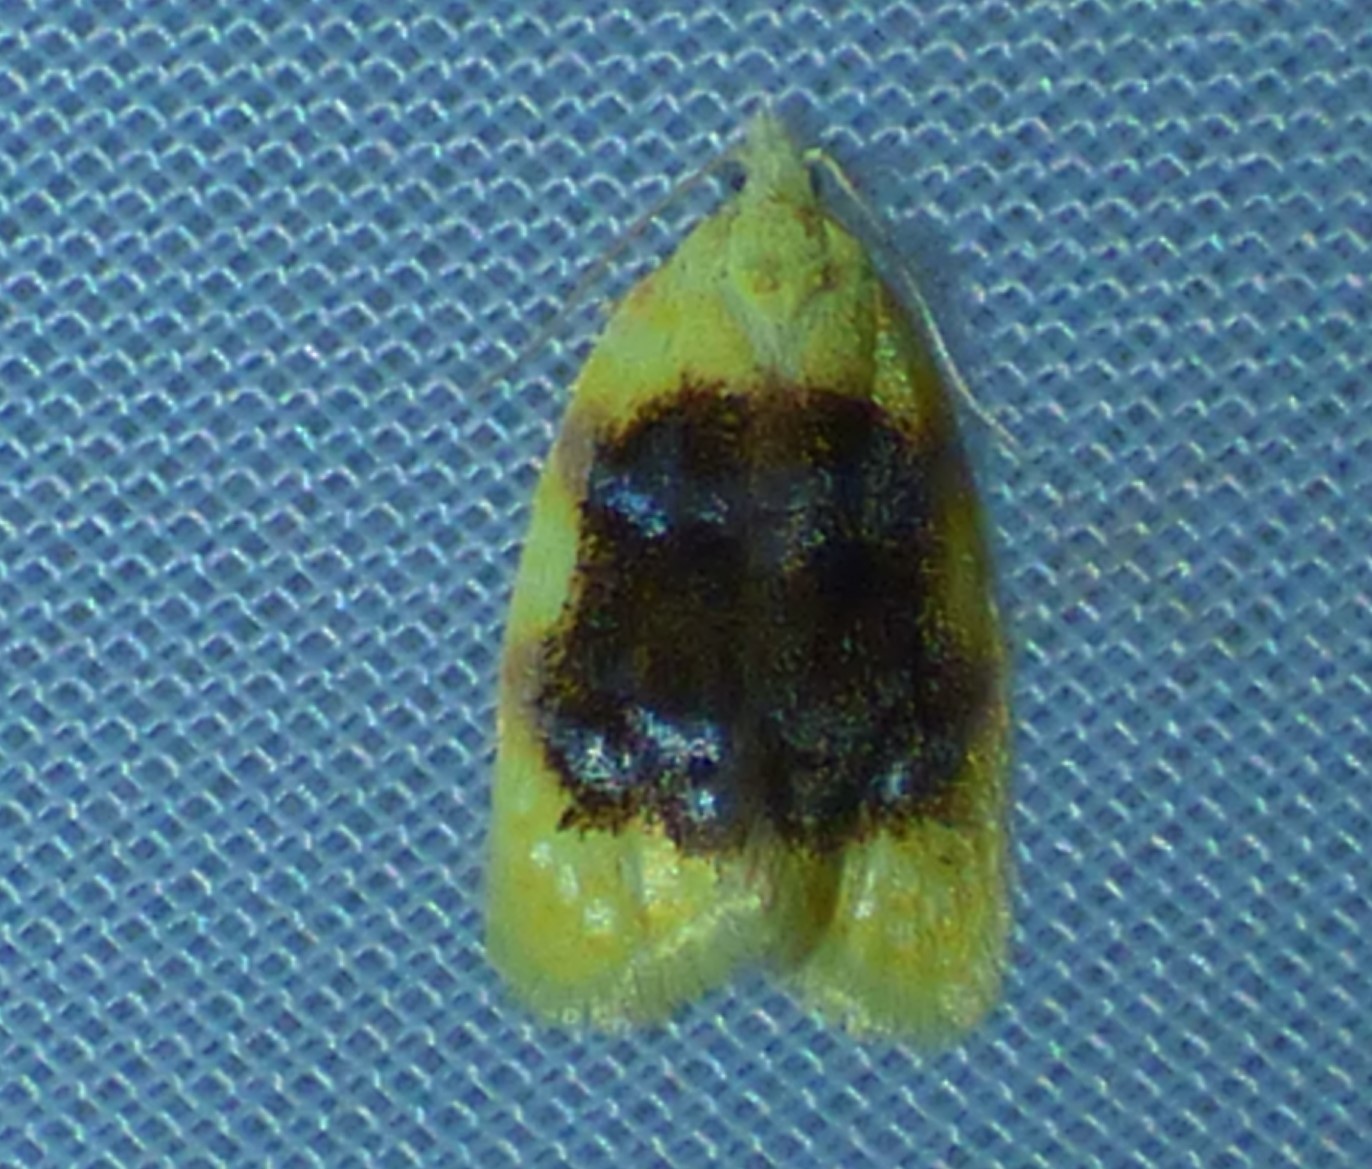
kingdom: Animalia
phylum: Arthropoda
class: Insecta
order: Lepidoptera
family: Tortricidae
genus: Acleris
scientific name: Acleris semipurpurana
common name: Oak leaftier moth
